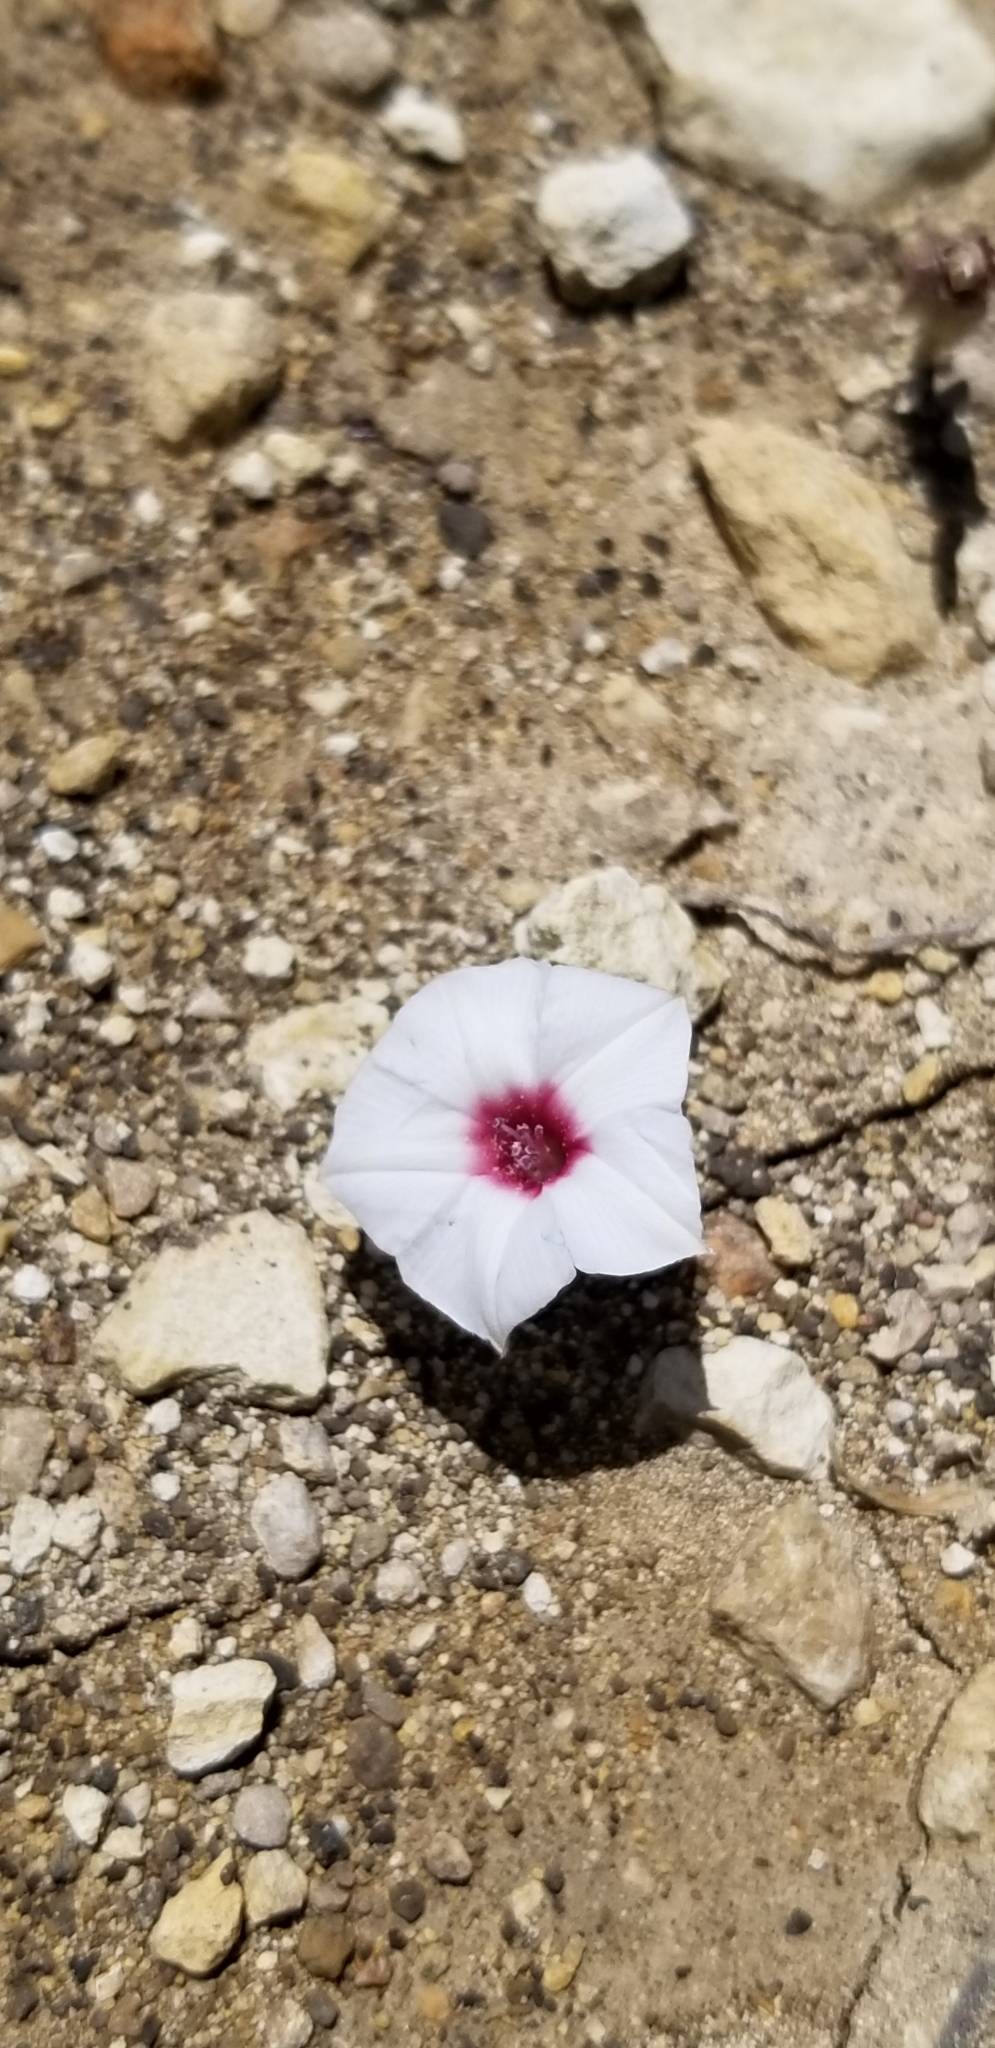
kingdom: Plantae
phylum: Tracheophyta
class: Magnoliopsida
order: Solanales
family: Convolvulaceae
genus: Convolvulus
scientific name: Convolvulus equitans
